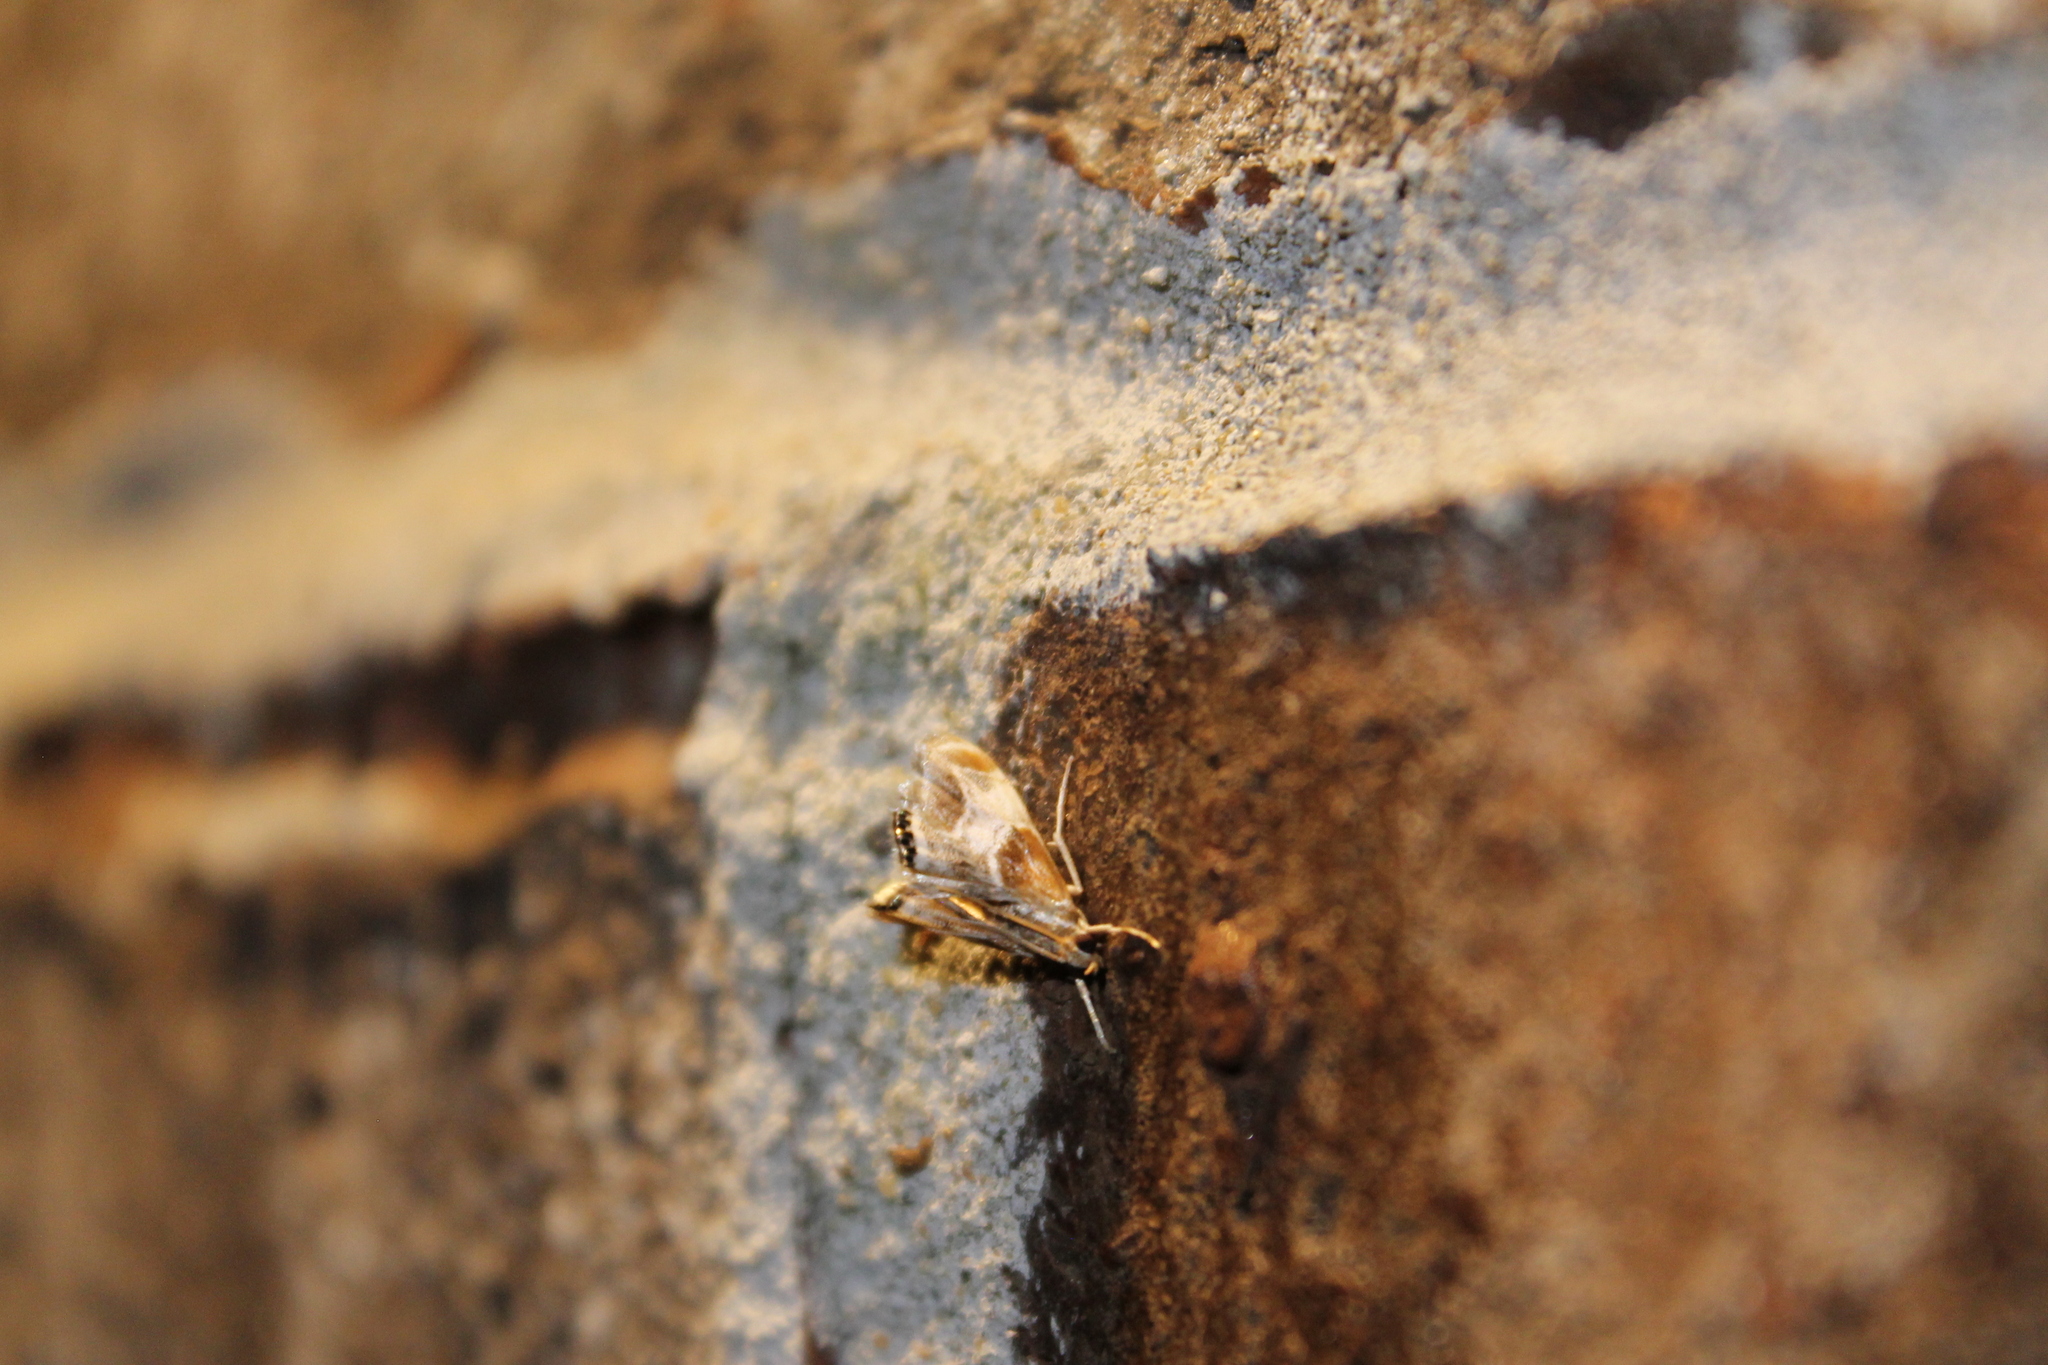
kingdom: Animalia
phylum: Arthropoda
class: Insecta
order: Lepidoptera
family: Crambidae
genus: Chalcoela
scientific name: Chalcoela pegasalis
